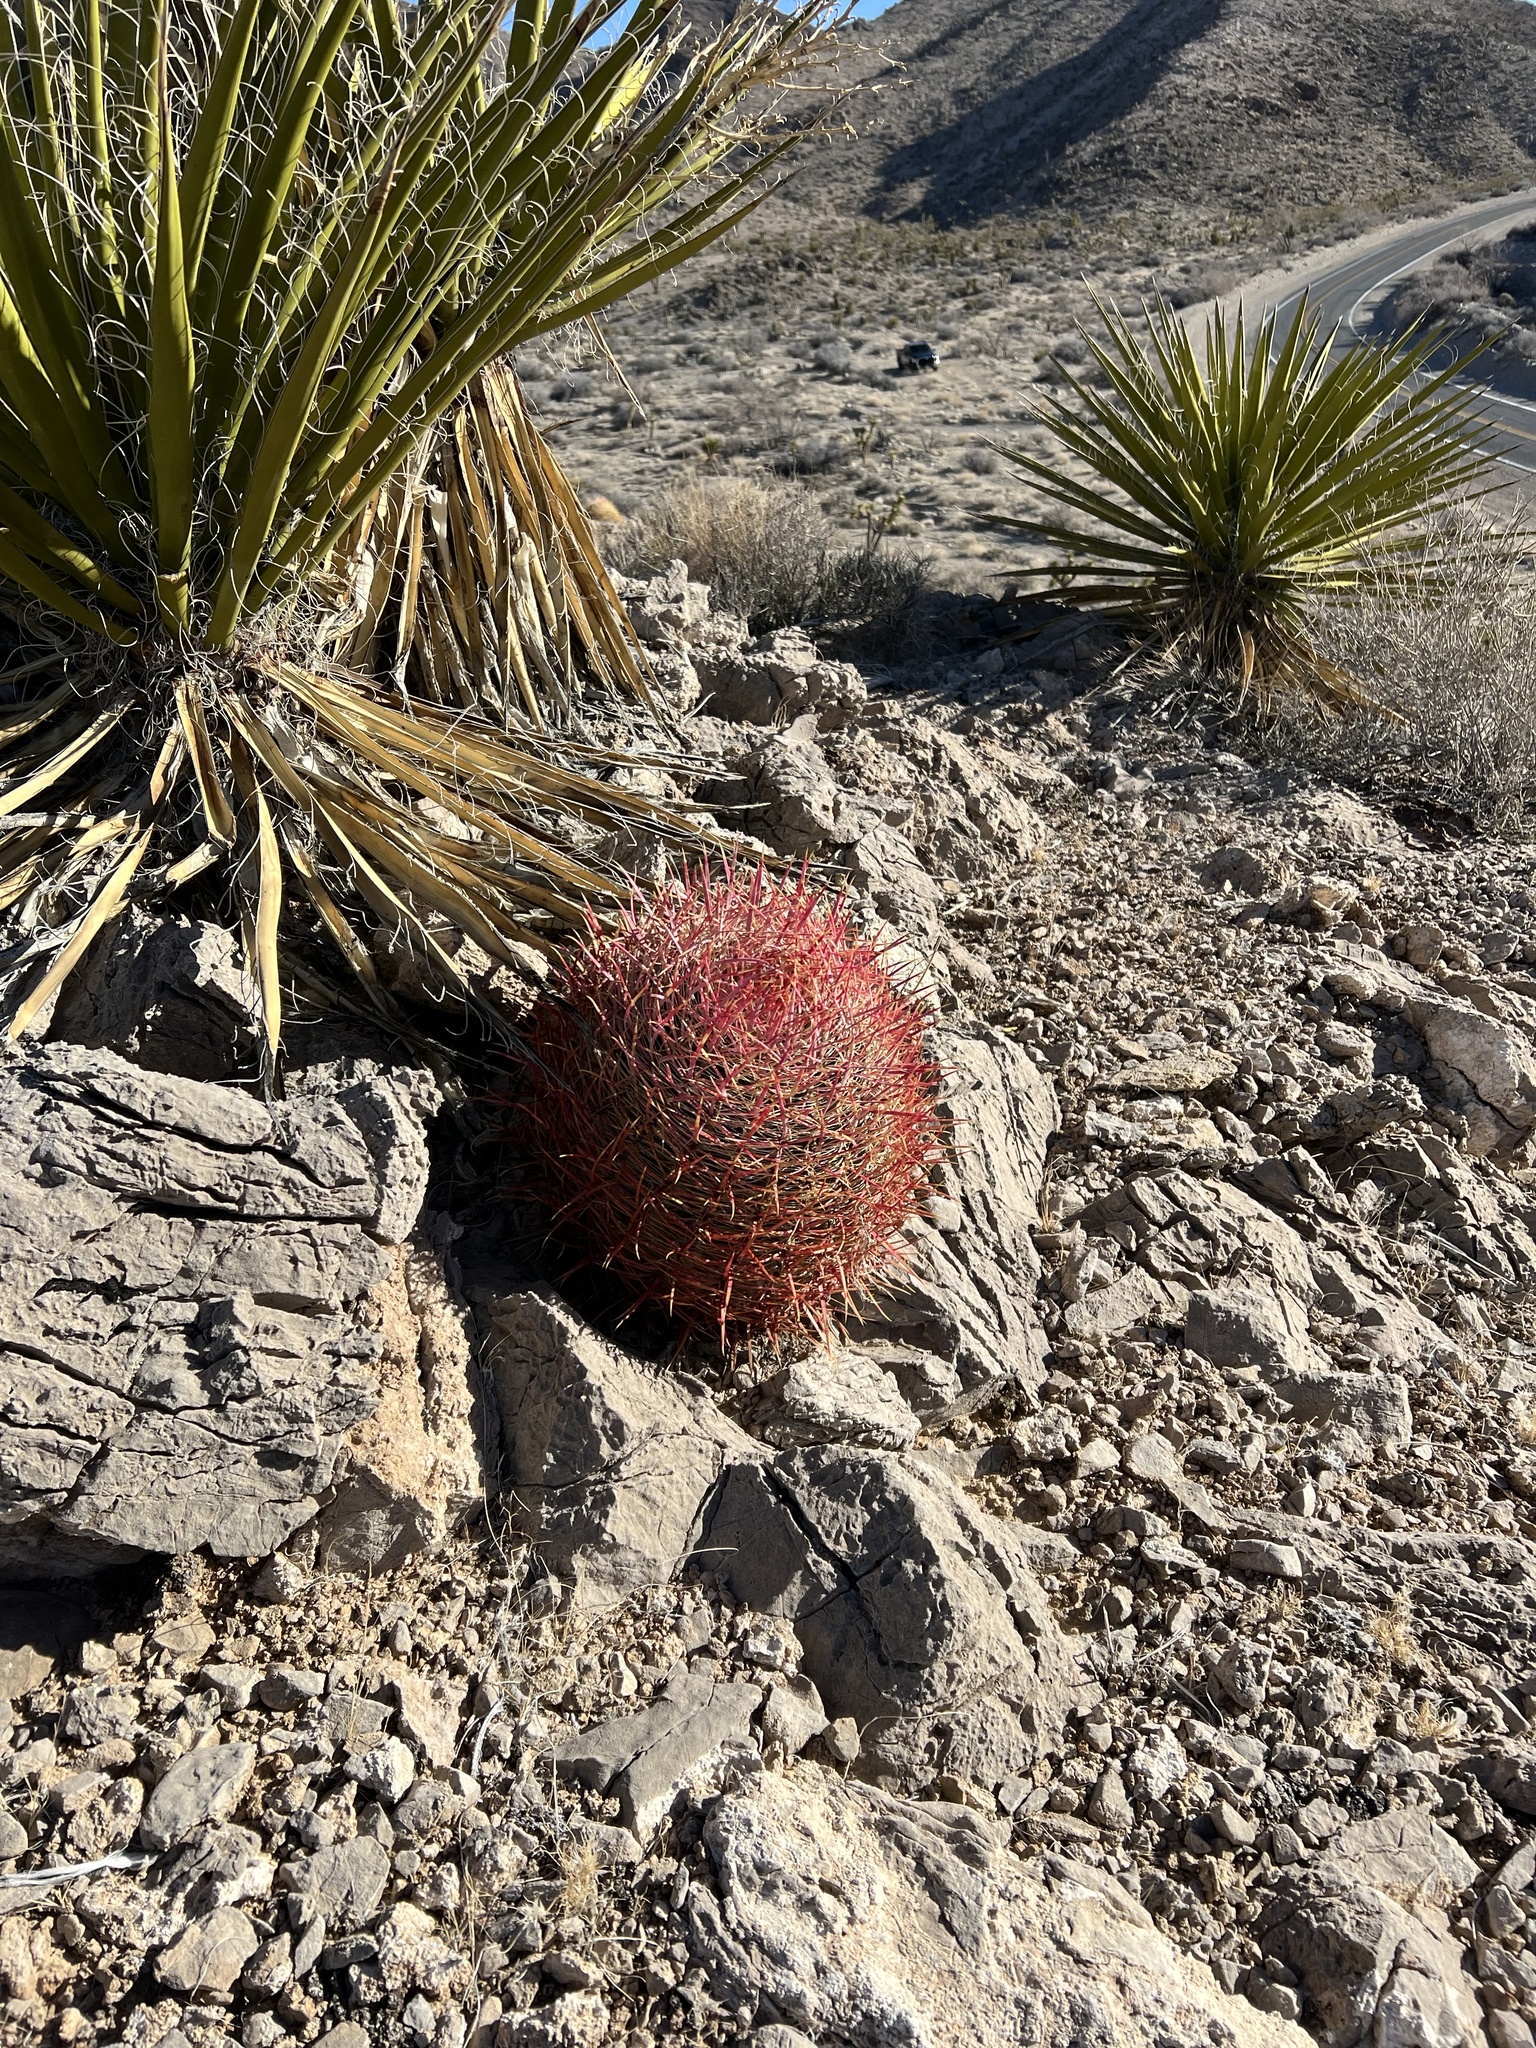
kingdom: Plantae
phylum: Tracheophyta
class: Magnoliopsida
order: Caryophyllales
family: Cactaceae
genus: Ferocactus
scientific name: Ferocactus cylindraceus
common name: California barrel cactus
